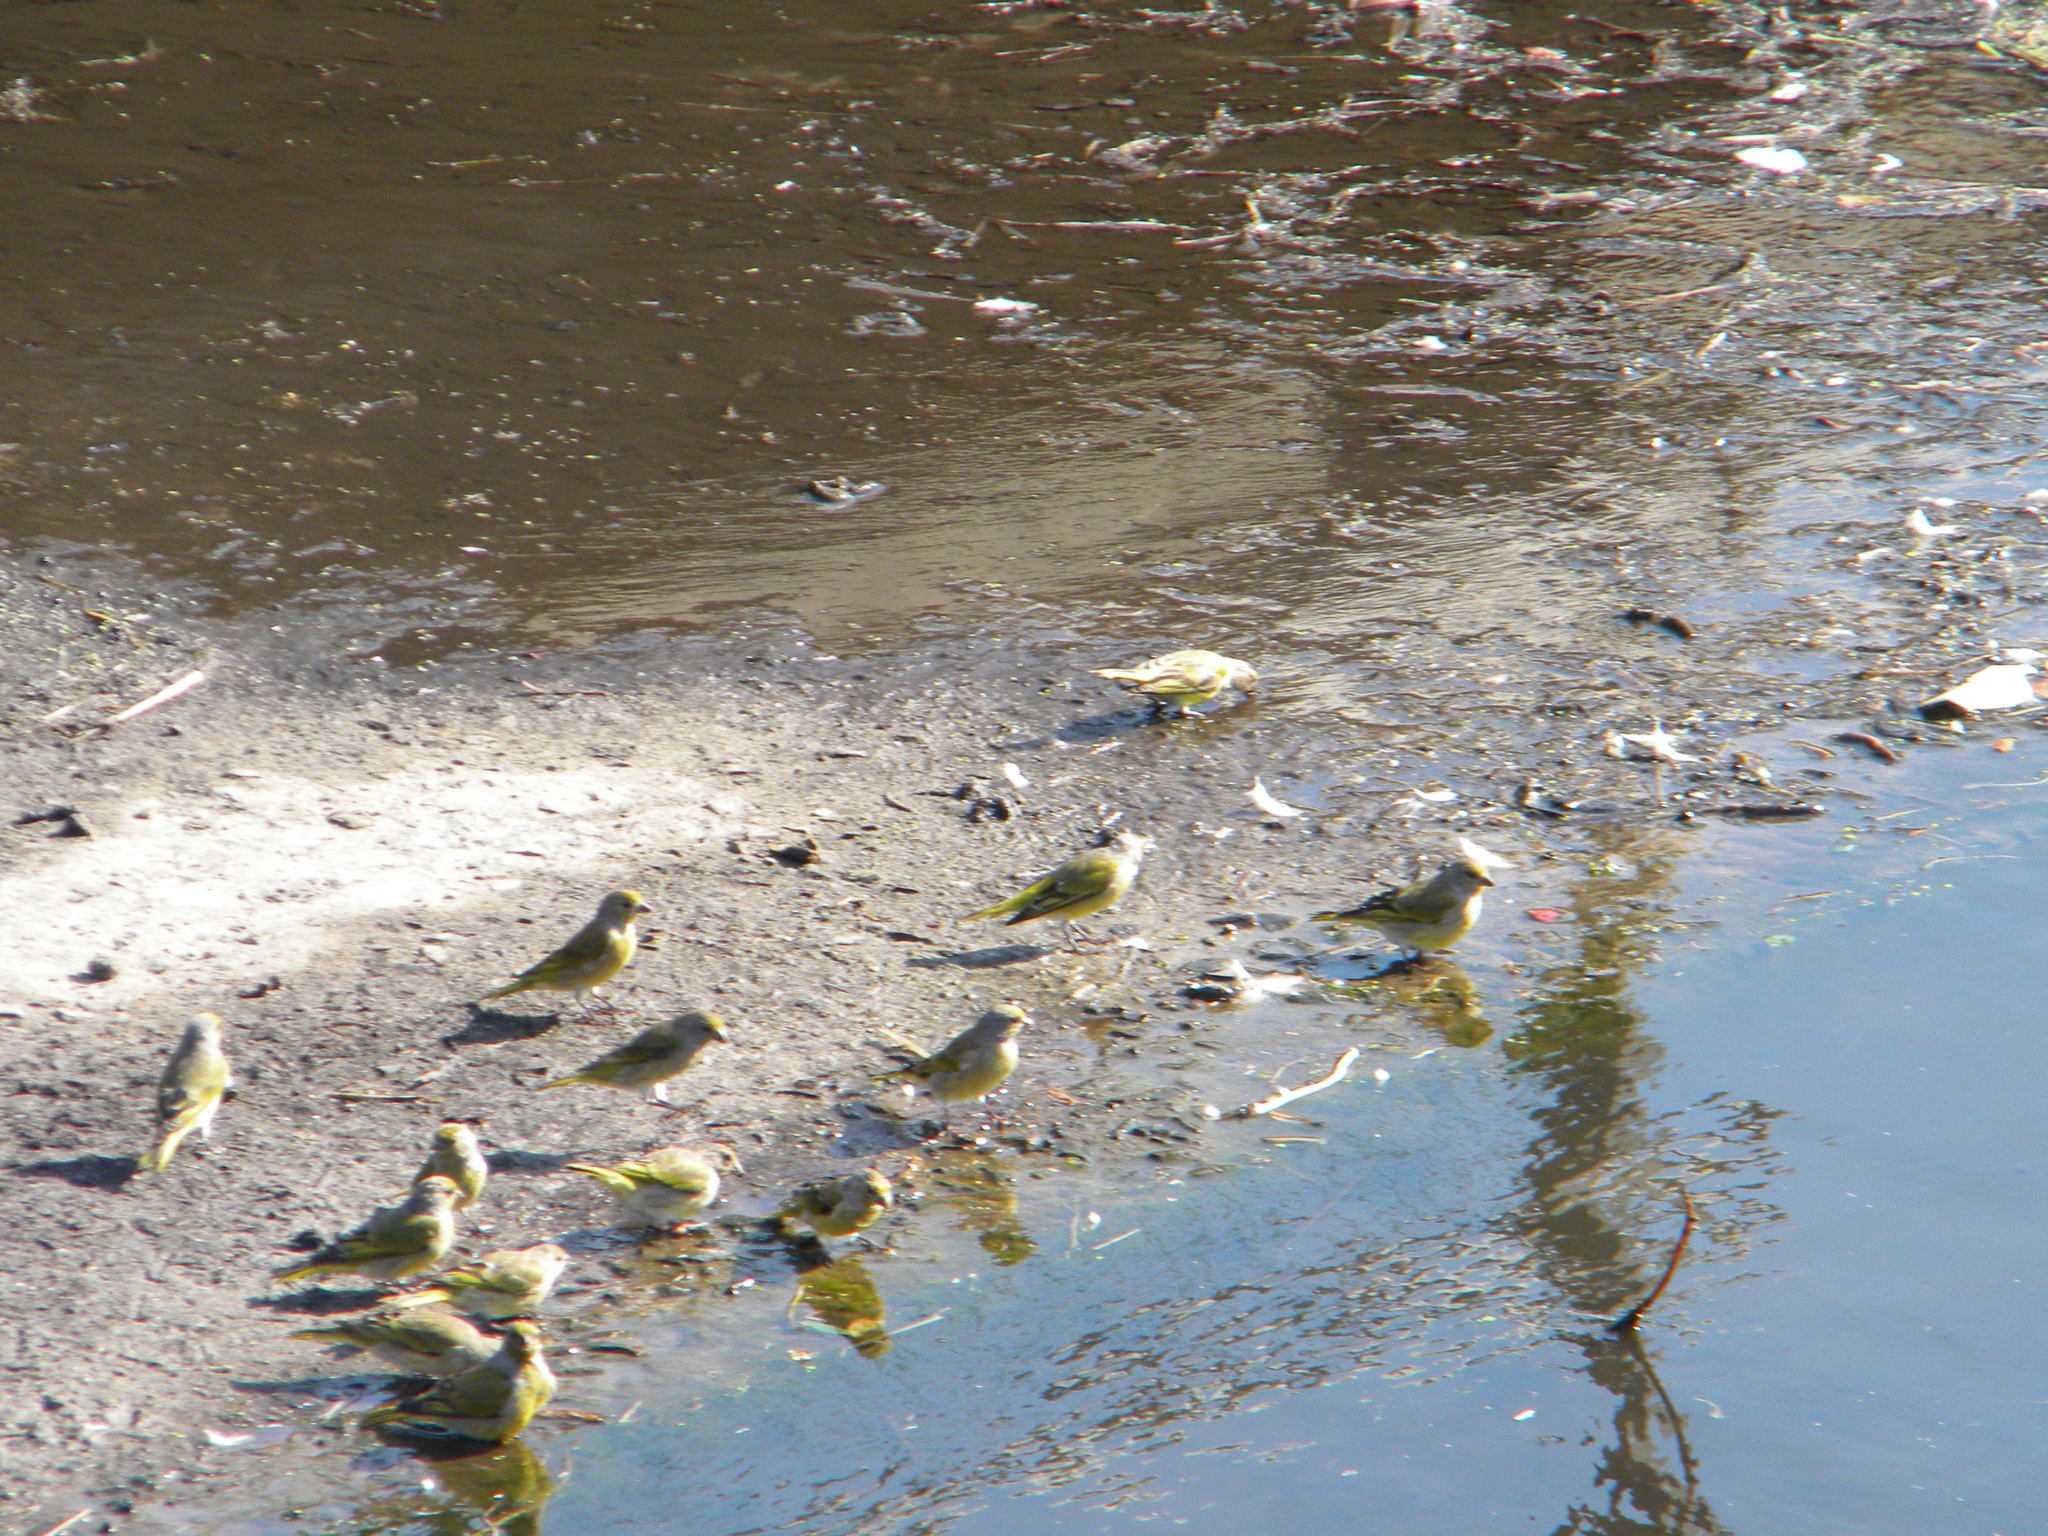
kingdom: Animalia
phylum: Chordata
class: Aves
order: Passeriformes
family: Fringillidae
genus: Serinus
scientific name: Serinus canicollis
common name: Cape canary
